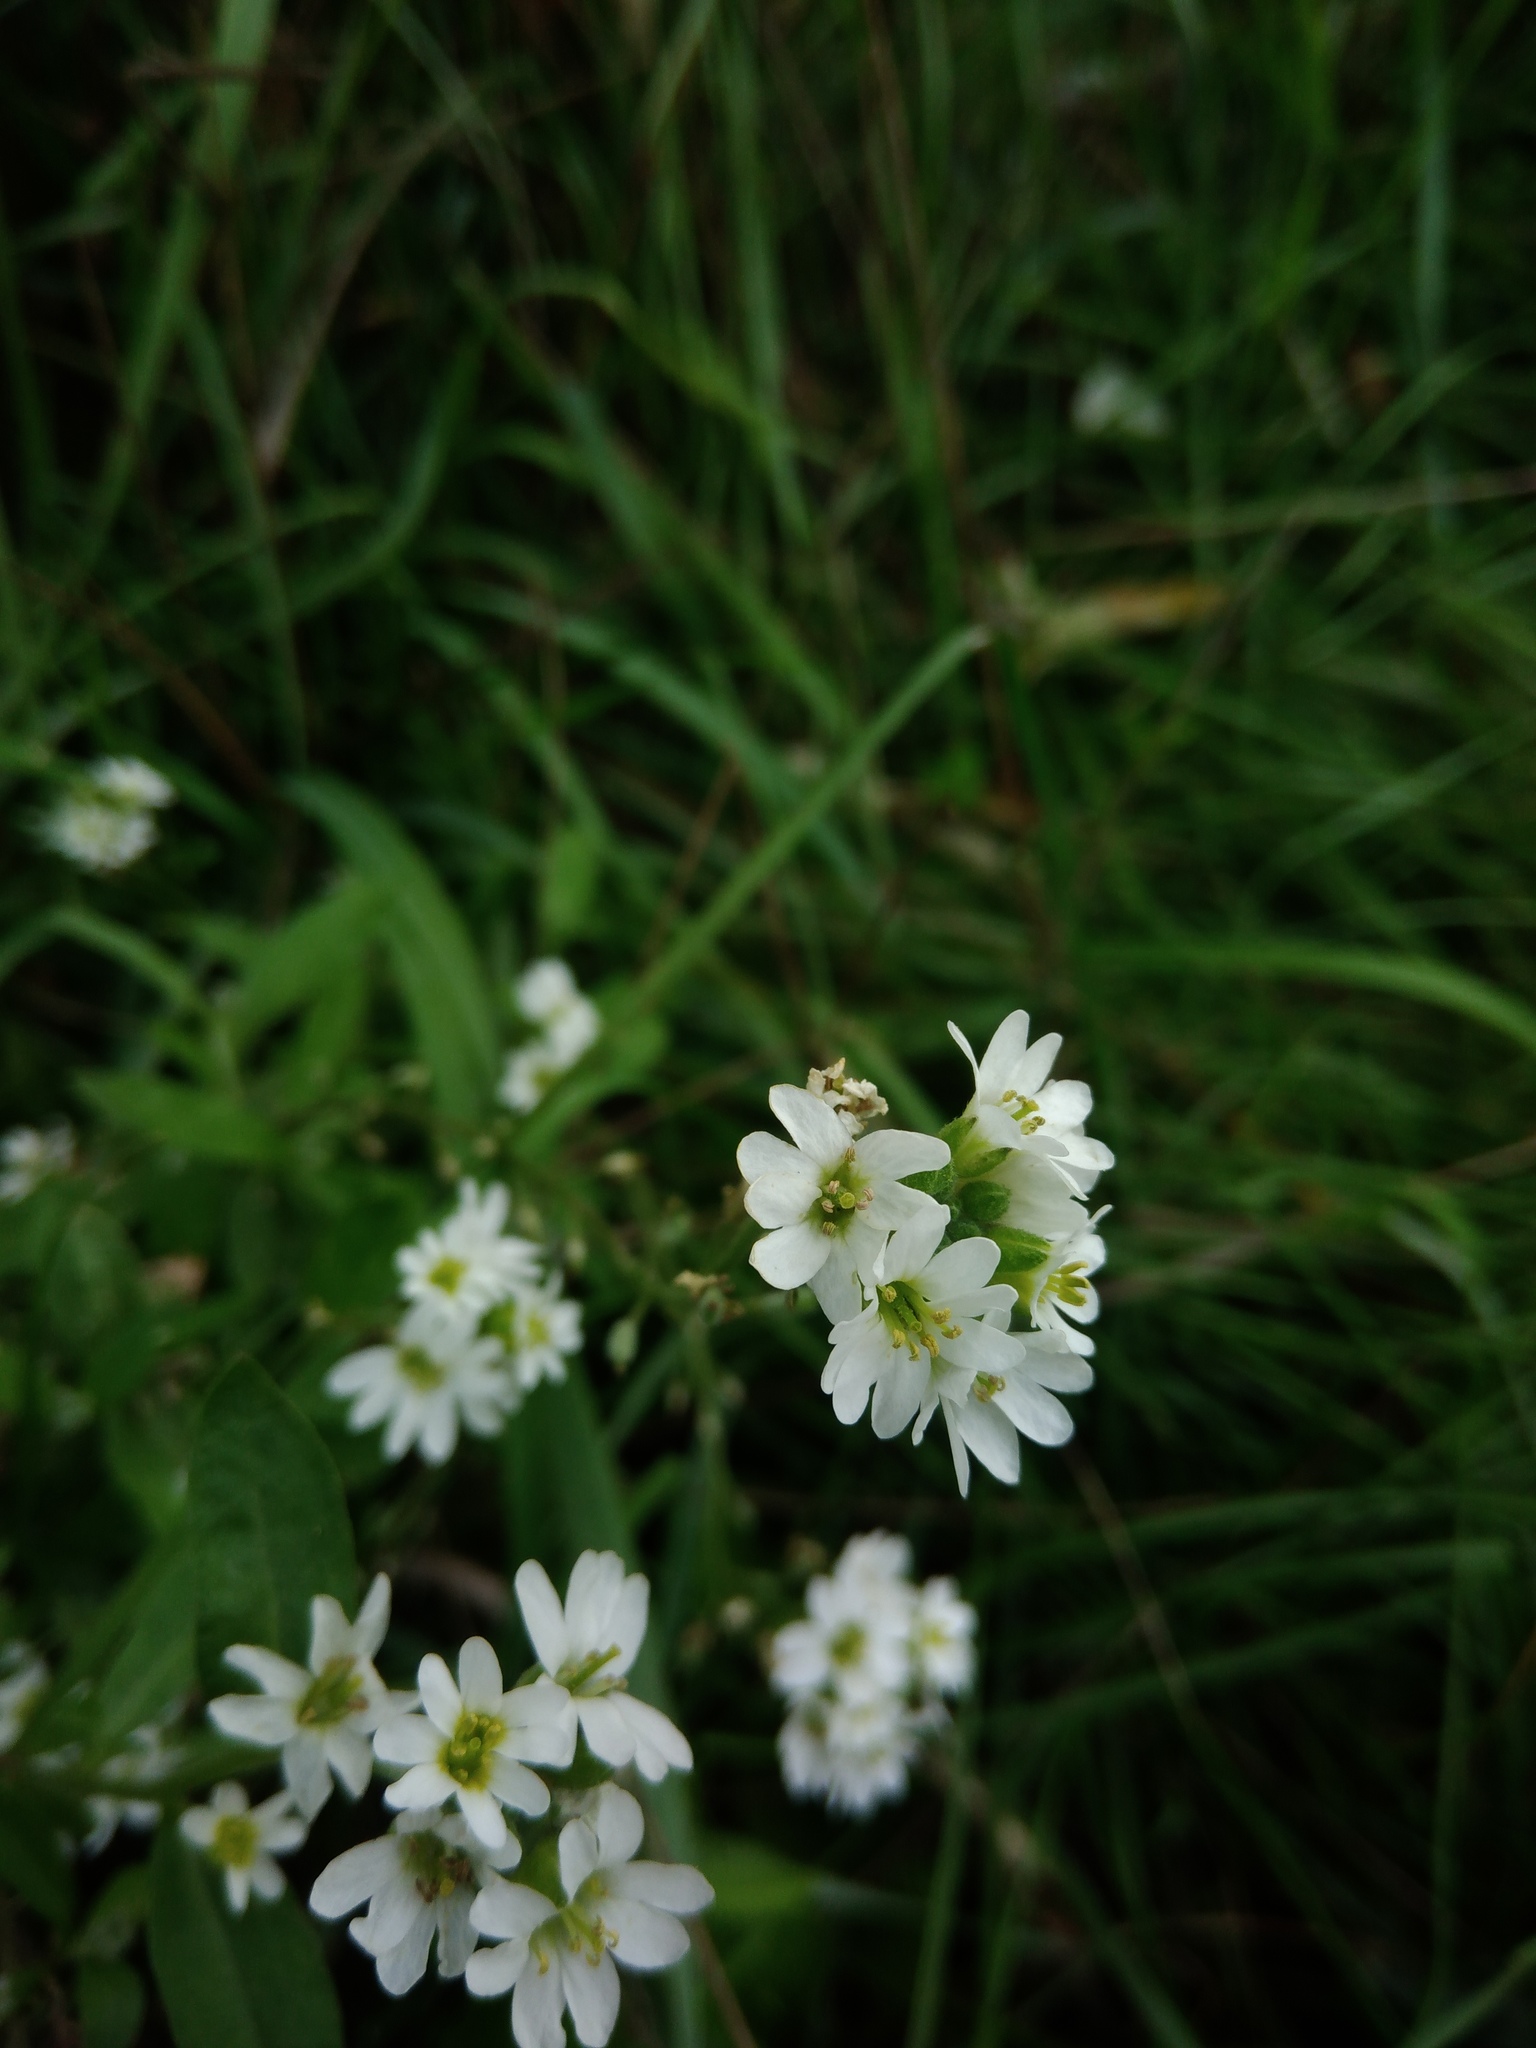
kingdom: Plantae
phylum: Tracheophyta
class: Magnoliopsida
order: Brassicales
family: Brassicaceae
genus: Berteroa
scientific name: Berteroa incana
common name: Hoary alison
